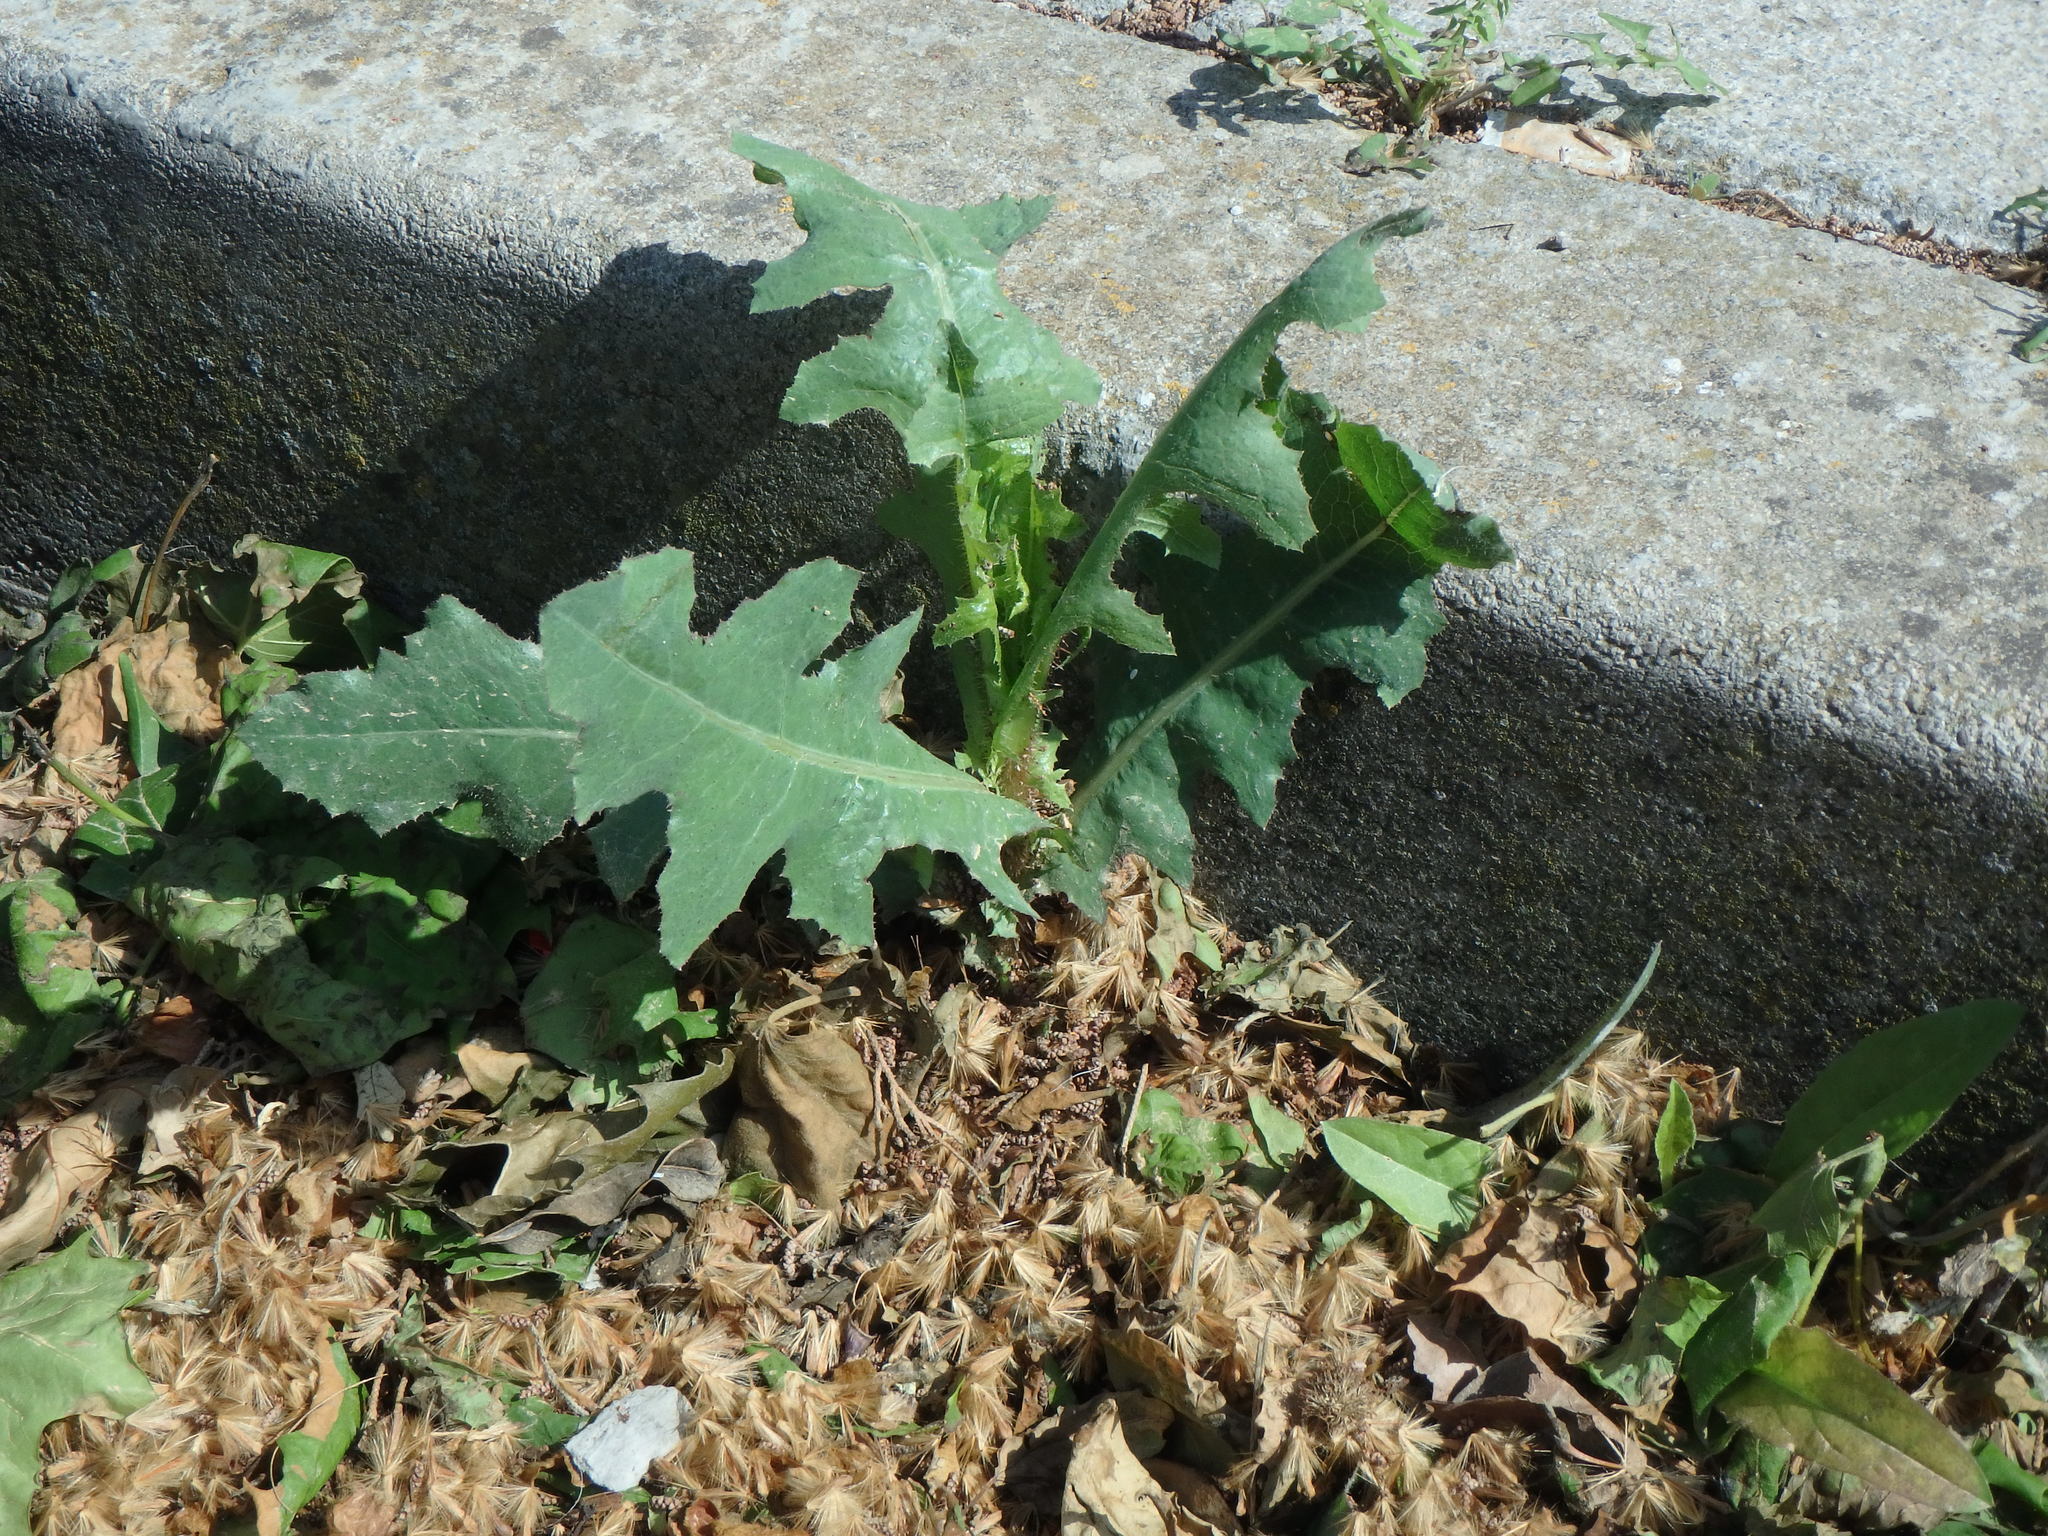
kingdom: Plantae
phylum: Tracheophyta
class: Magnoliopsida
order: Asterales
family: Asteraceae
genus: Lactuca
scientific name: Lactuca serriola
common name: Prickly lettuce
